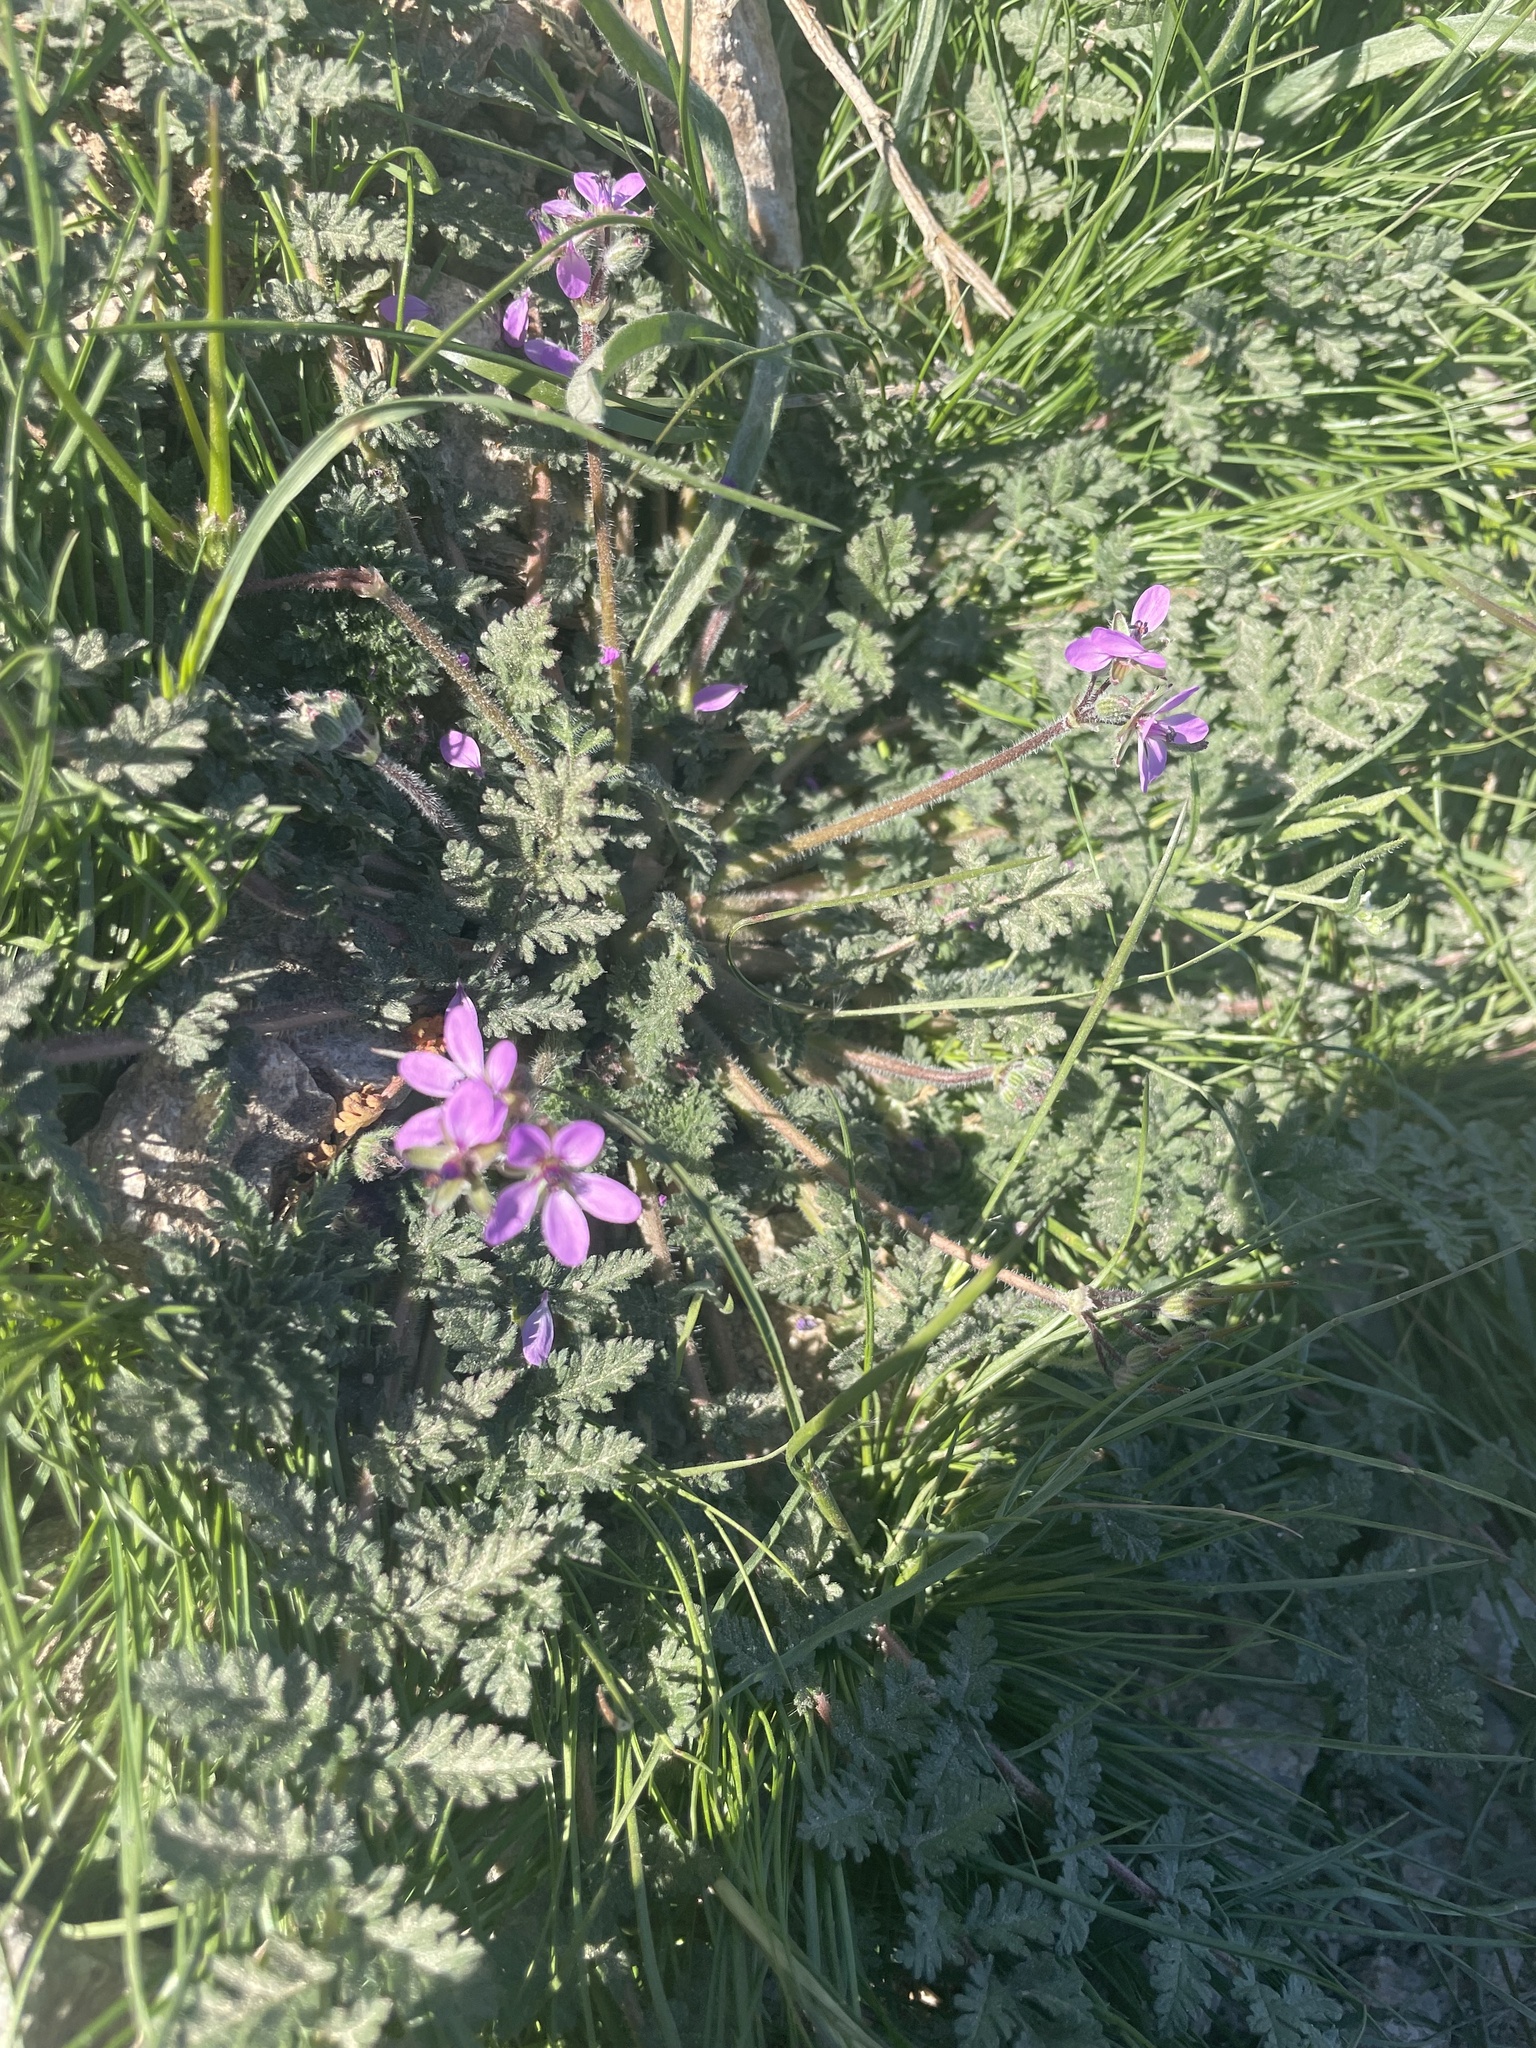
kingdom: Plantae
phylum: Tracheophyta
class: Magnoliopsida
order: Geraniales
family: Geraniaceae
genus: Erodium
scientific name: Erodium cicutarium
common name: Common stork's-bill
